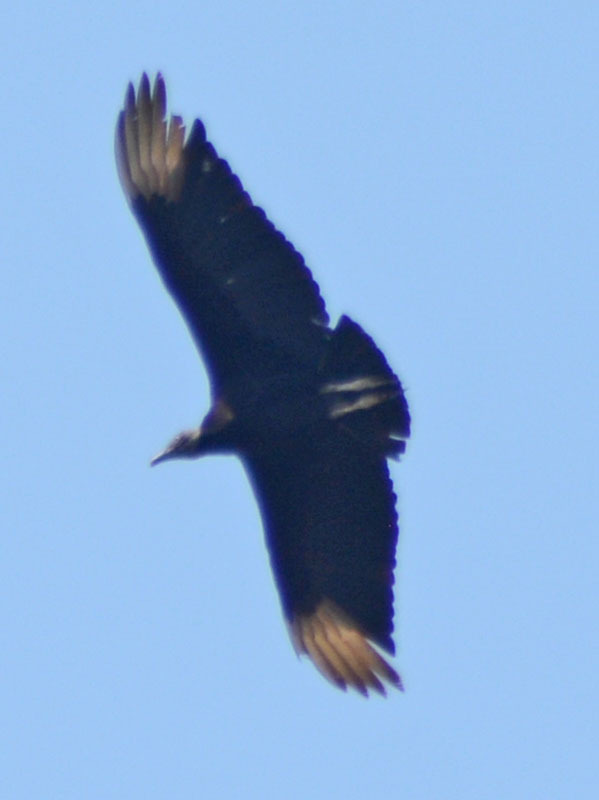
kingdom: Animalia
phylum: Chordata
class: Aves
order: Accipitriformes
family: Cathartidae
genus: Coragyps
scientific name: Coragyps atratus
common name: Black vulture
